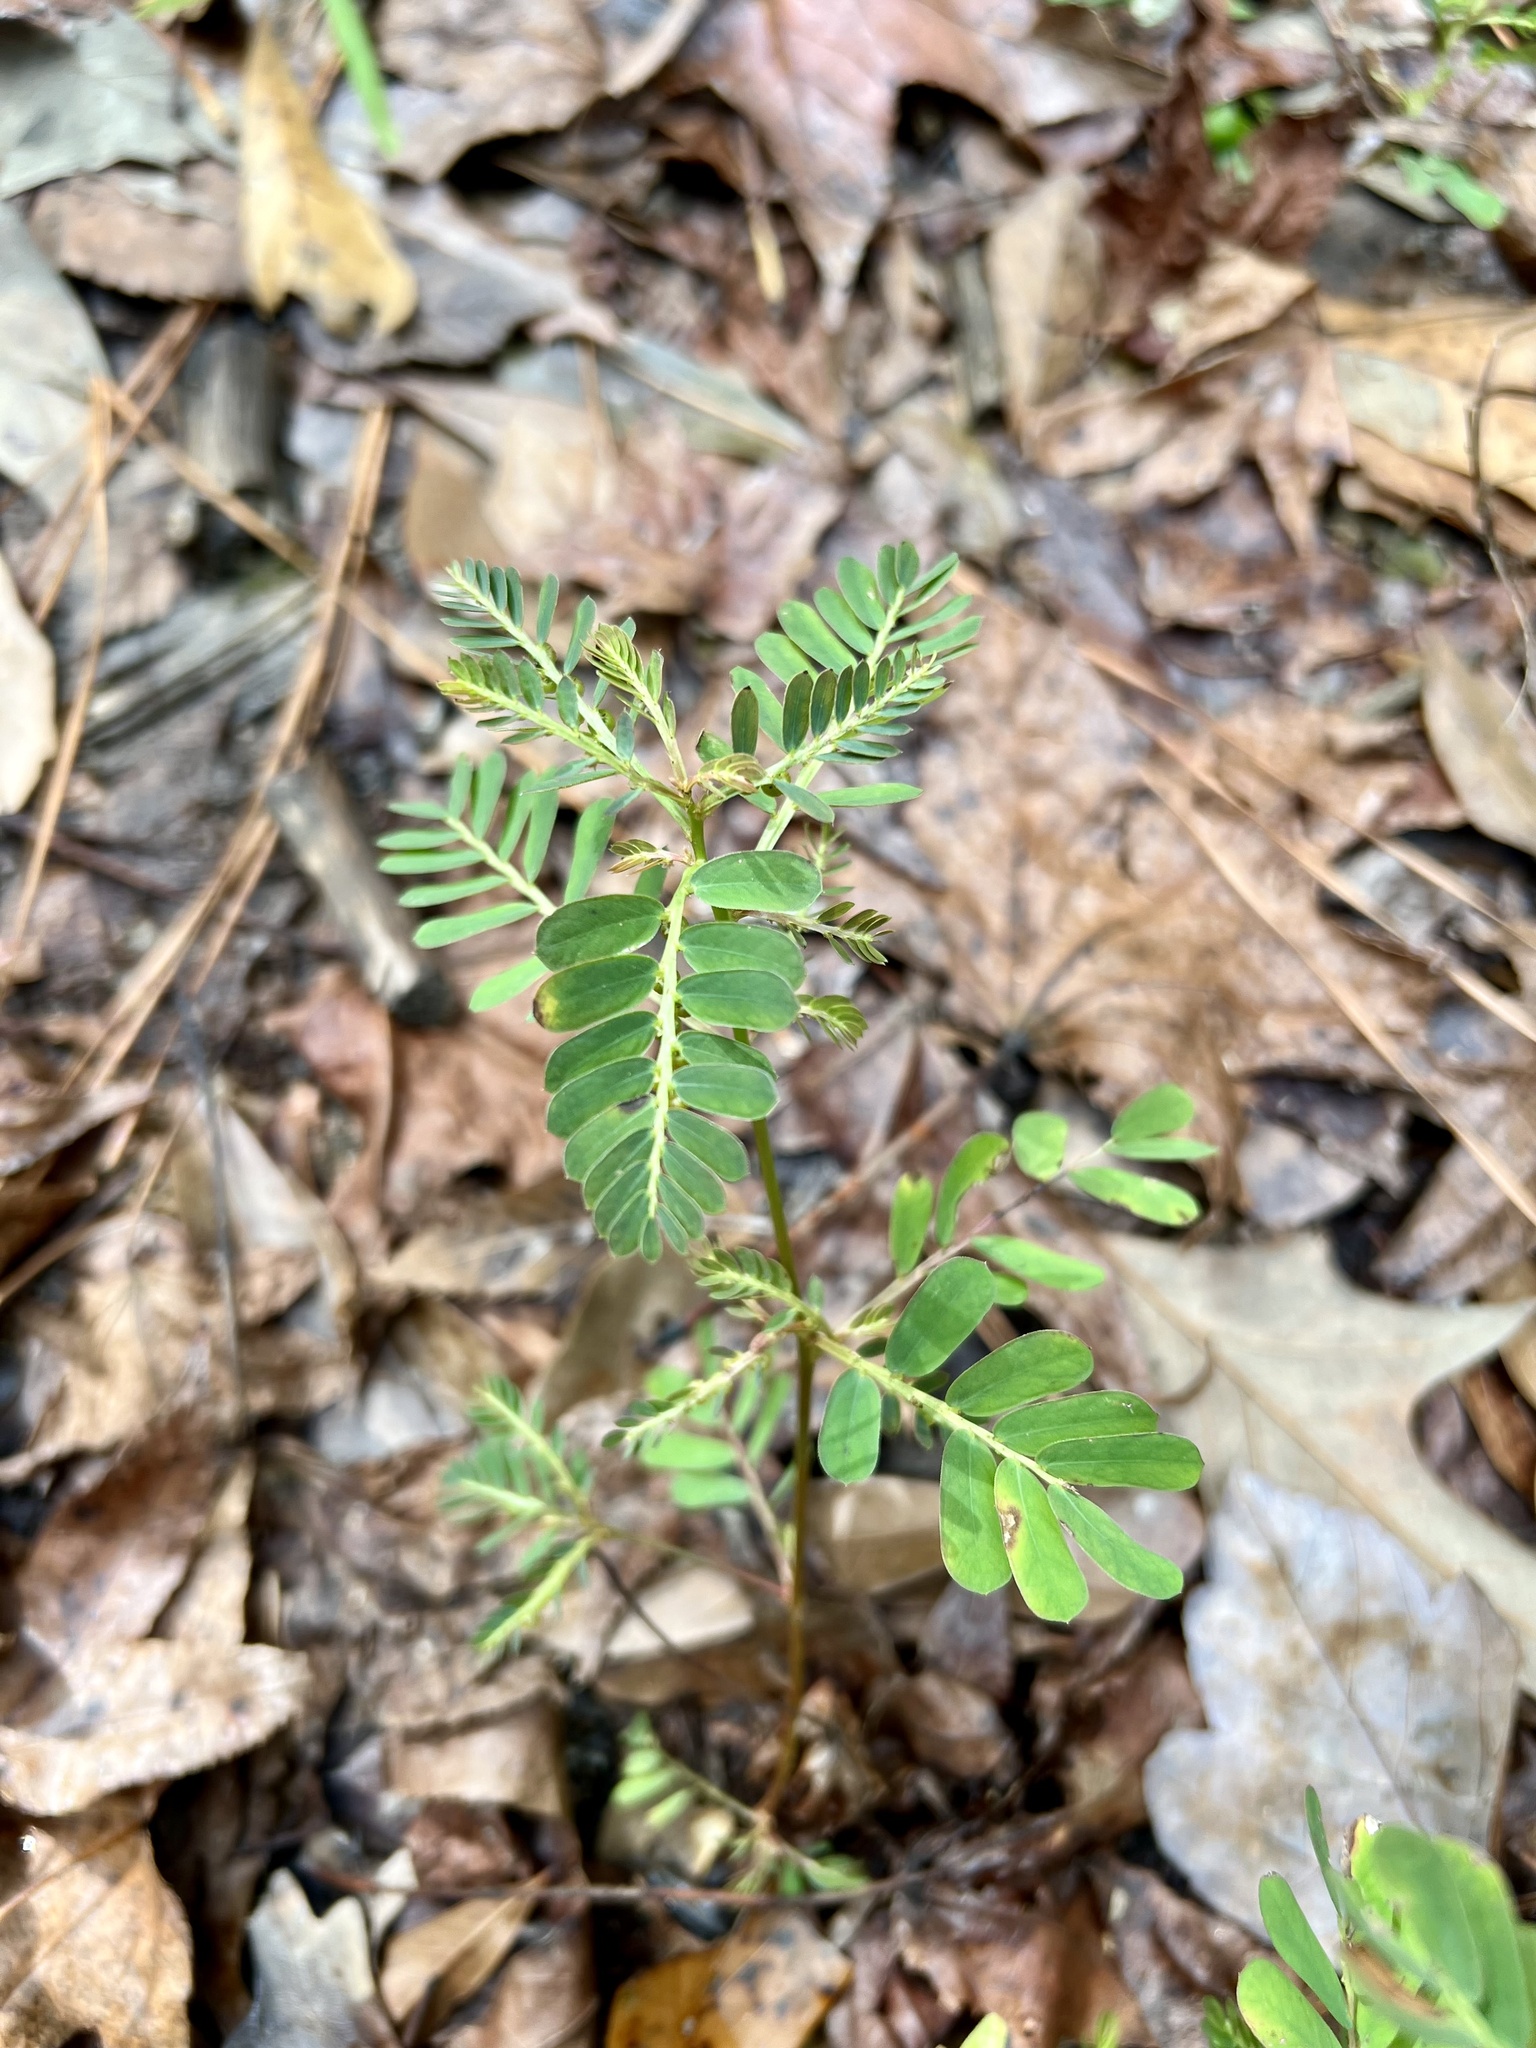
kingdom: Plantae
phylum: Tracheophyta
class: Magnoliopsida
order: Malpighiales
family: Phyllanthaceae
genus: Phyllanthus
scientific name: Phyllanthus urinaria
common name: Chamber bitter
